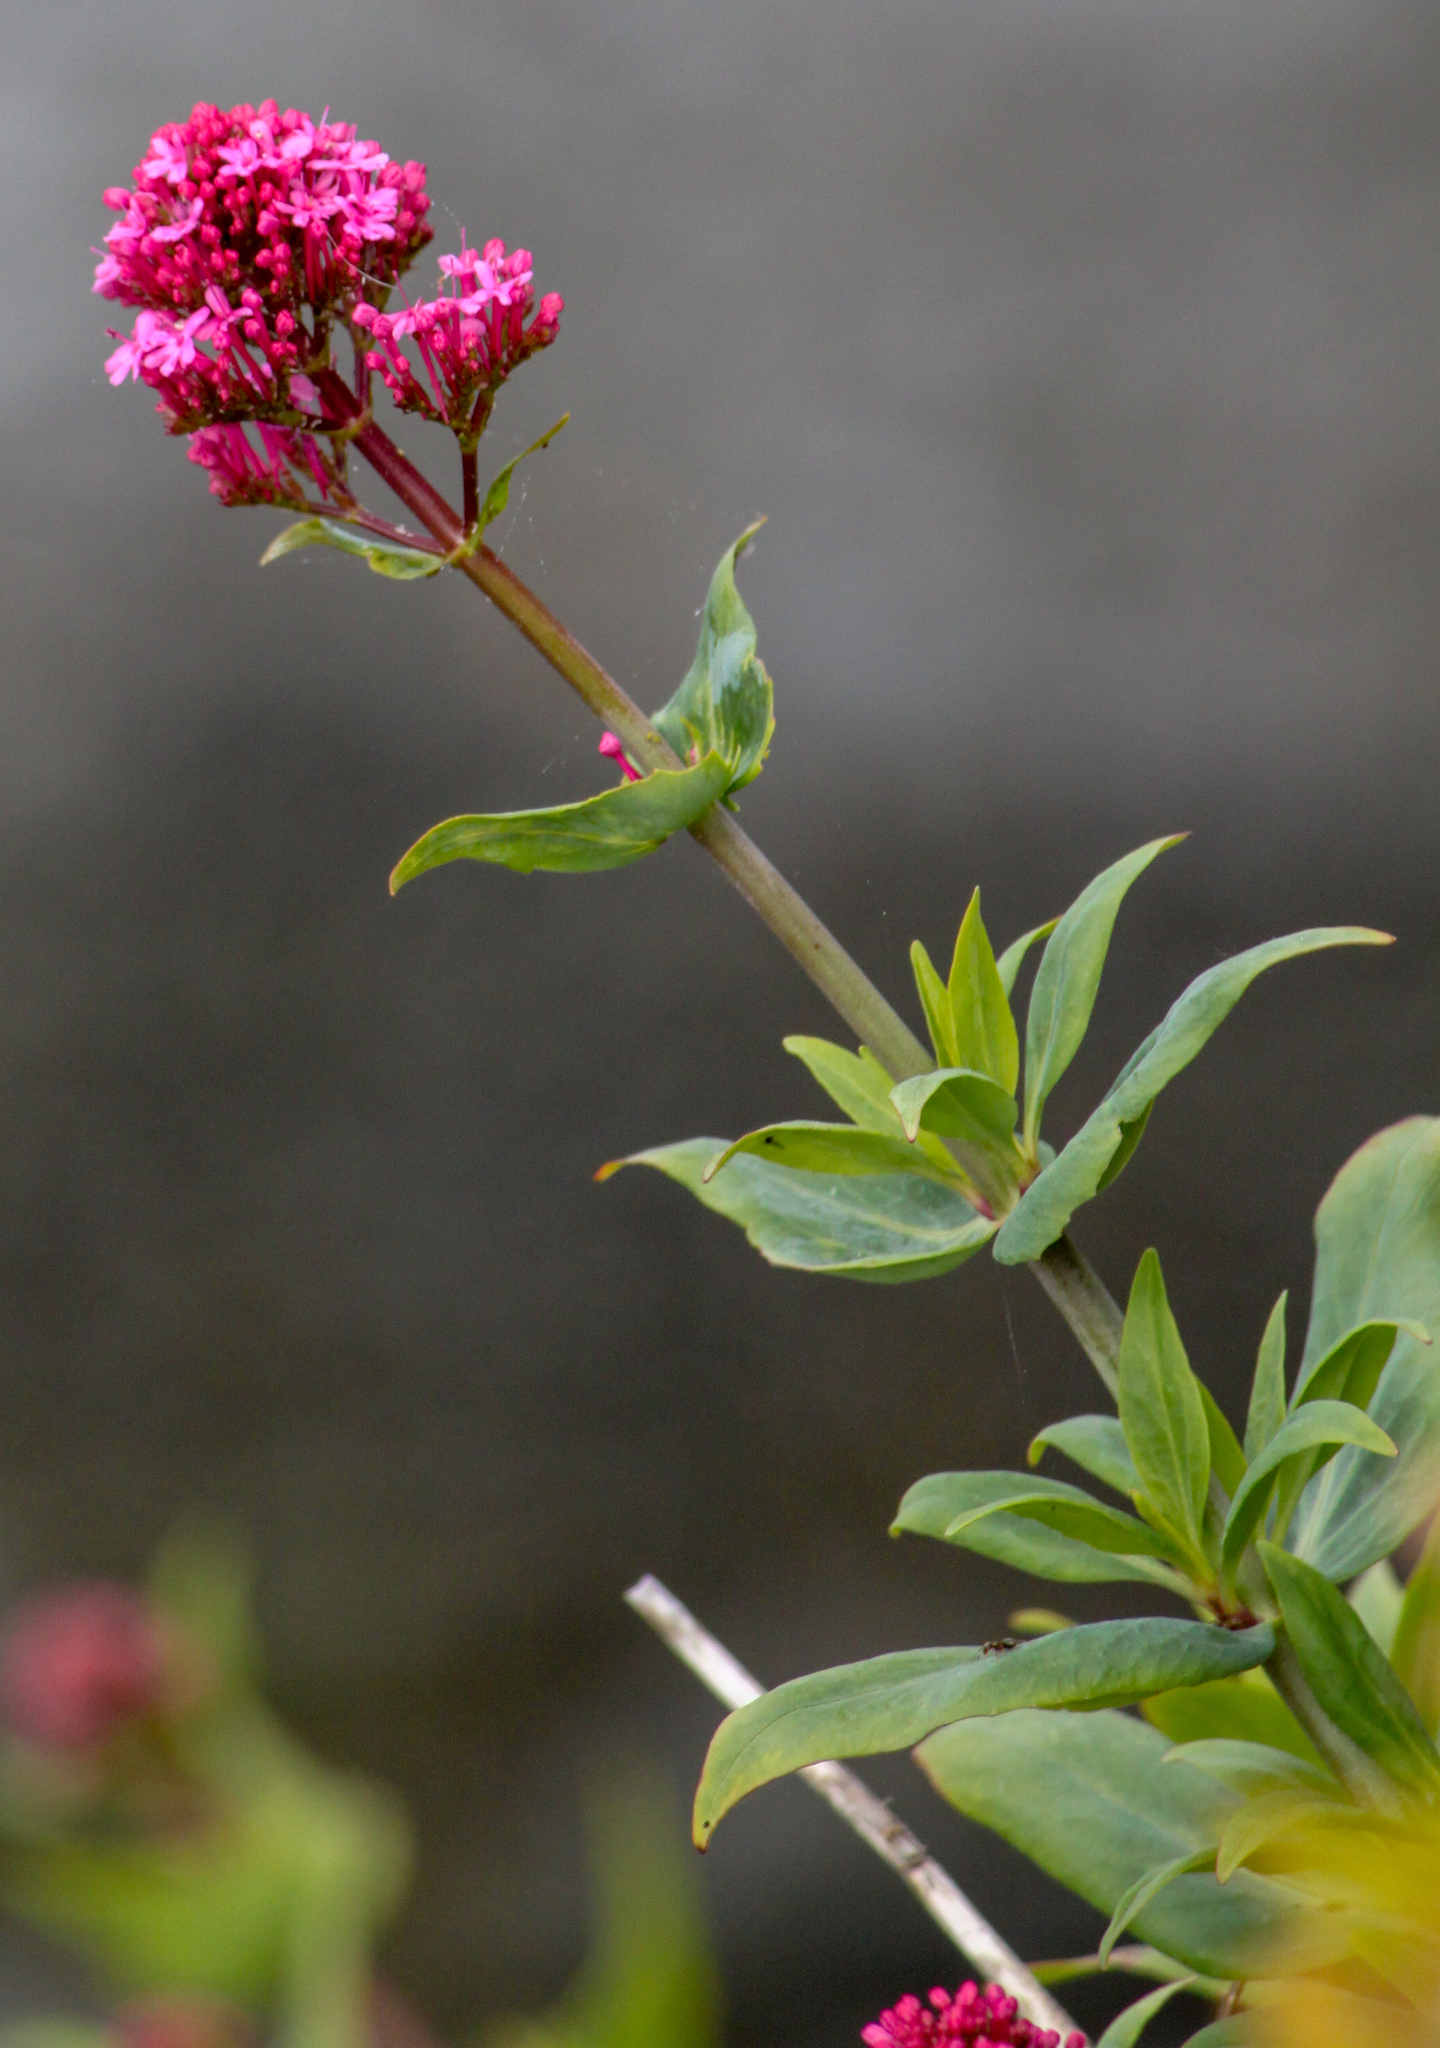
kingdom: Plantae
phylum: Tracheophyta
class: Magnoliopsida
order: Dipsacales
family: Caprifoliaceae
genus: Centranthus
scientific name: Centranthus ruber
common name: Red valerian
